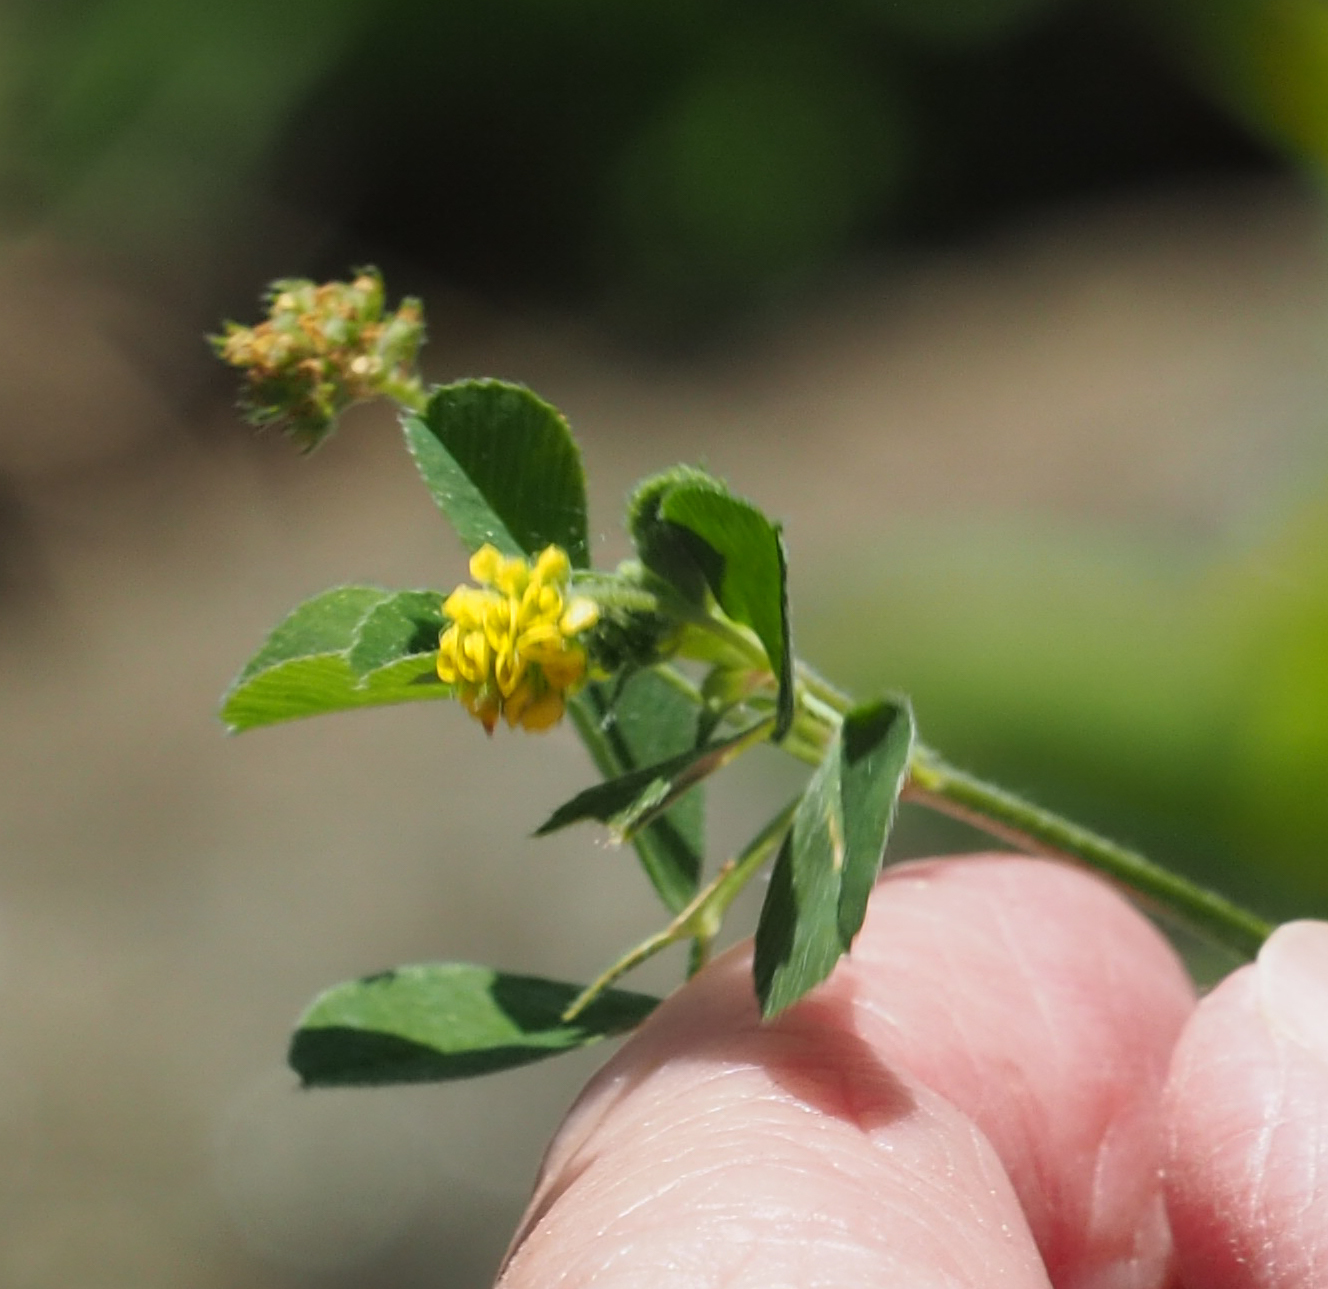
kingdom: Plantae
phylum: Tracheophyta
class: Magnoliopsida
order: Fabales
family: Fabaceae
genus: Medicago
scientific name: Medicago lupulina
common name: Black medick
